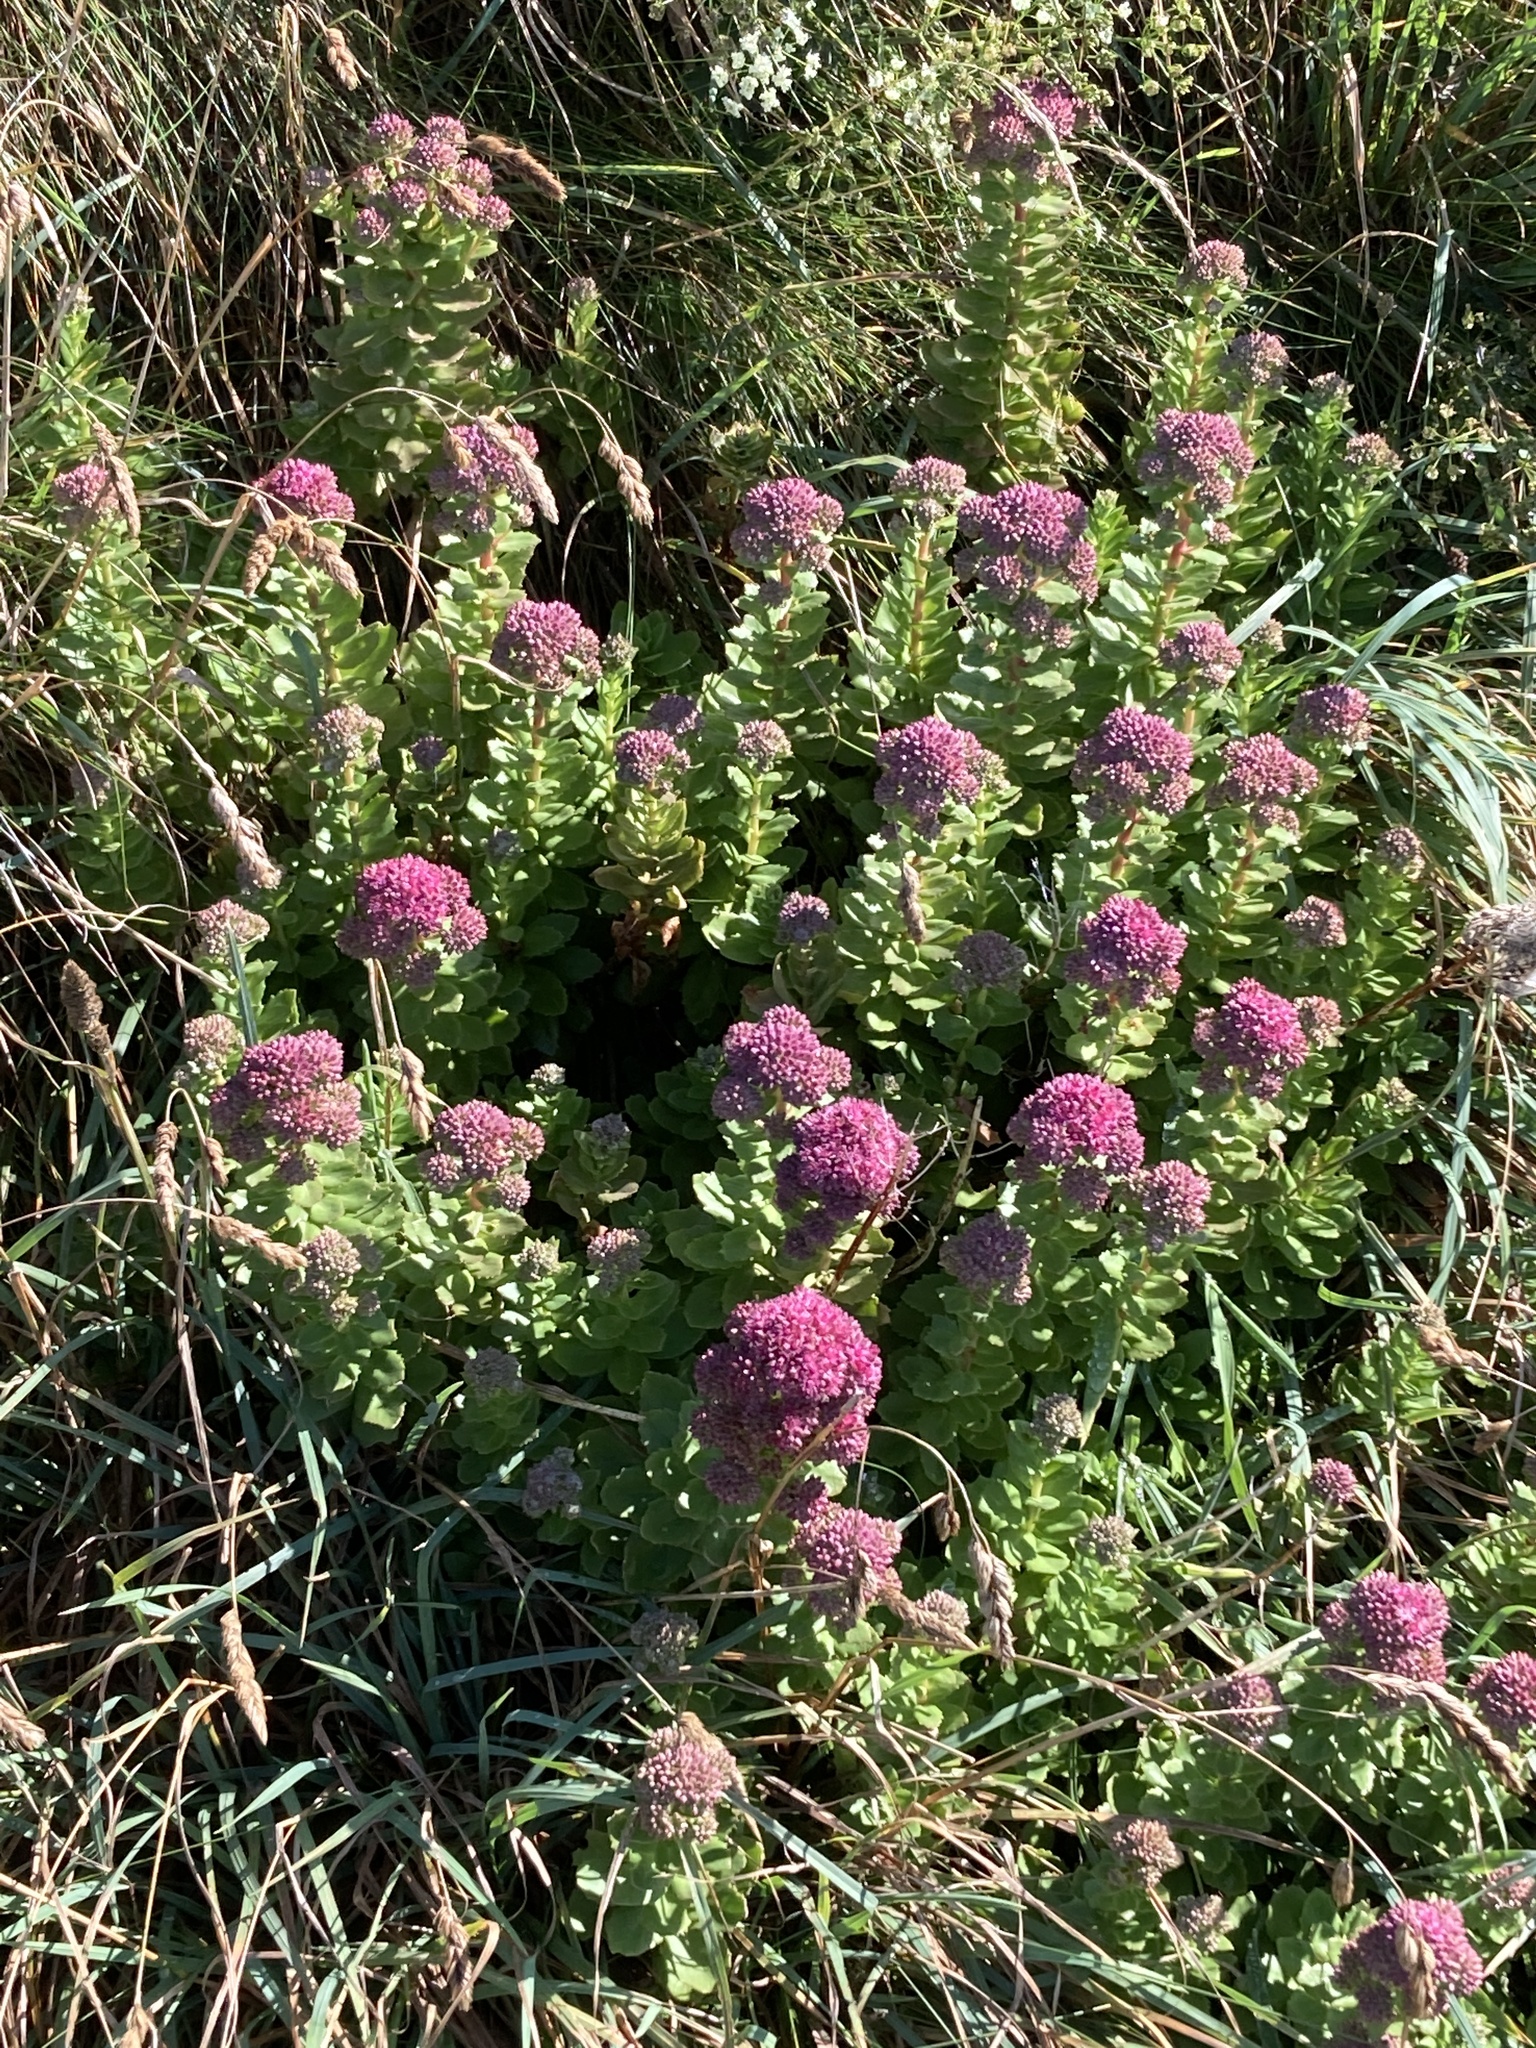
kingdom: Plantae
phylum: Tracheophyta
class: Magnoliopsida
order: Saxifragales
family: Crassulaceae
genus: Hylotelephium
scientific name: Hylotelephium telephium
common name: Live-forever
